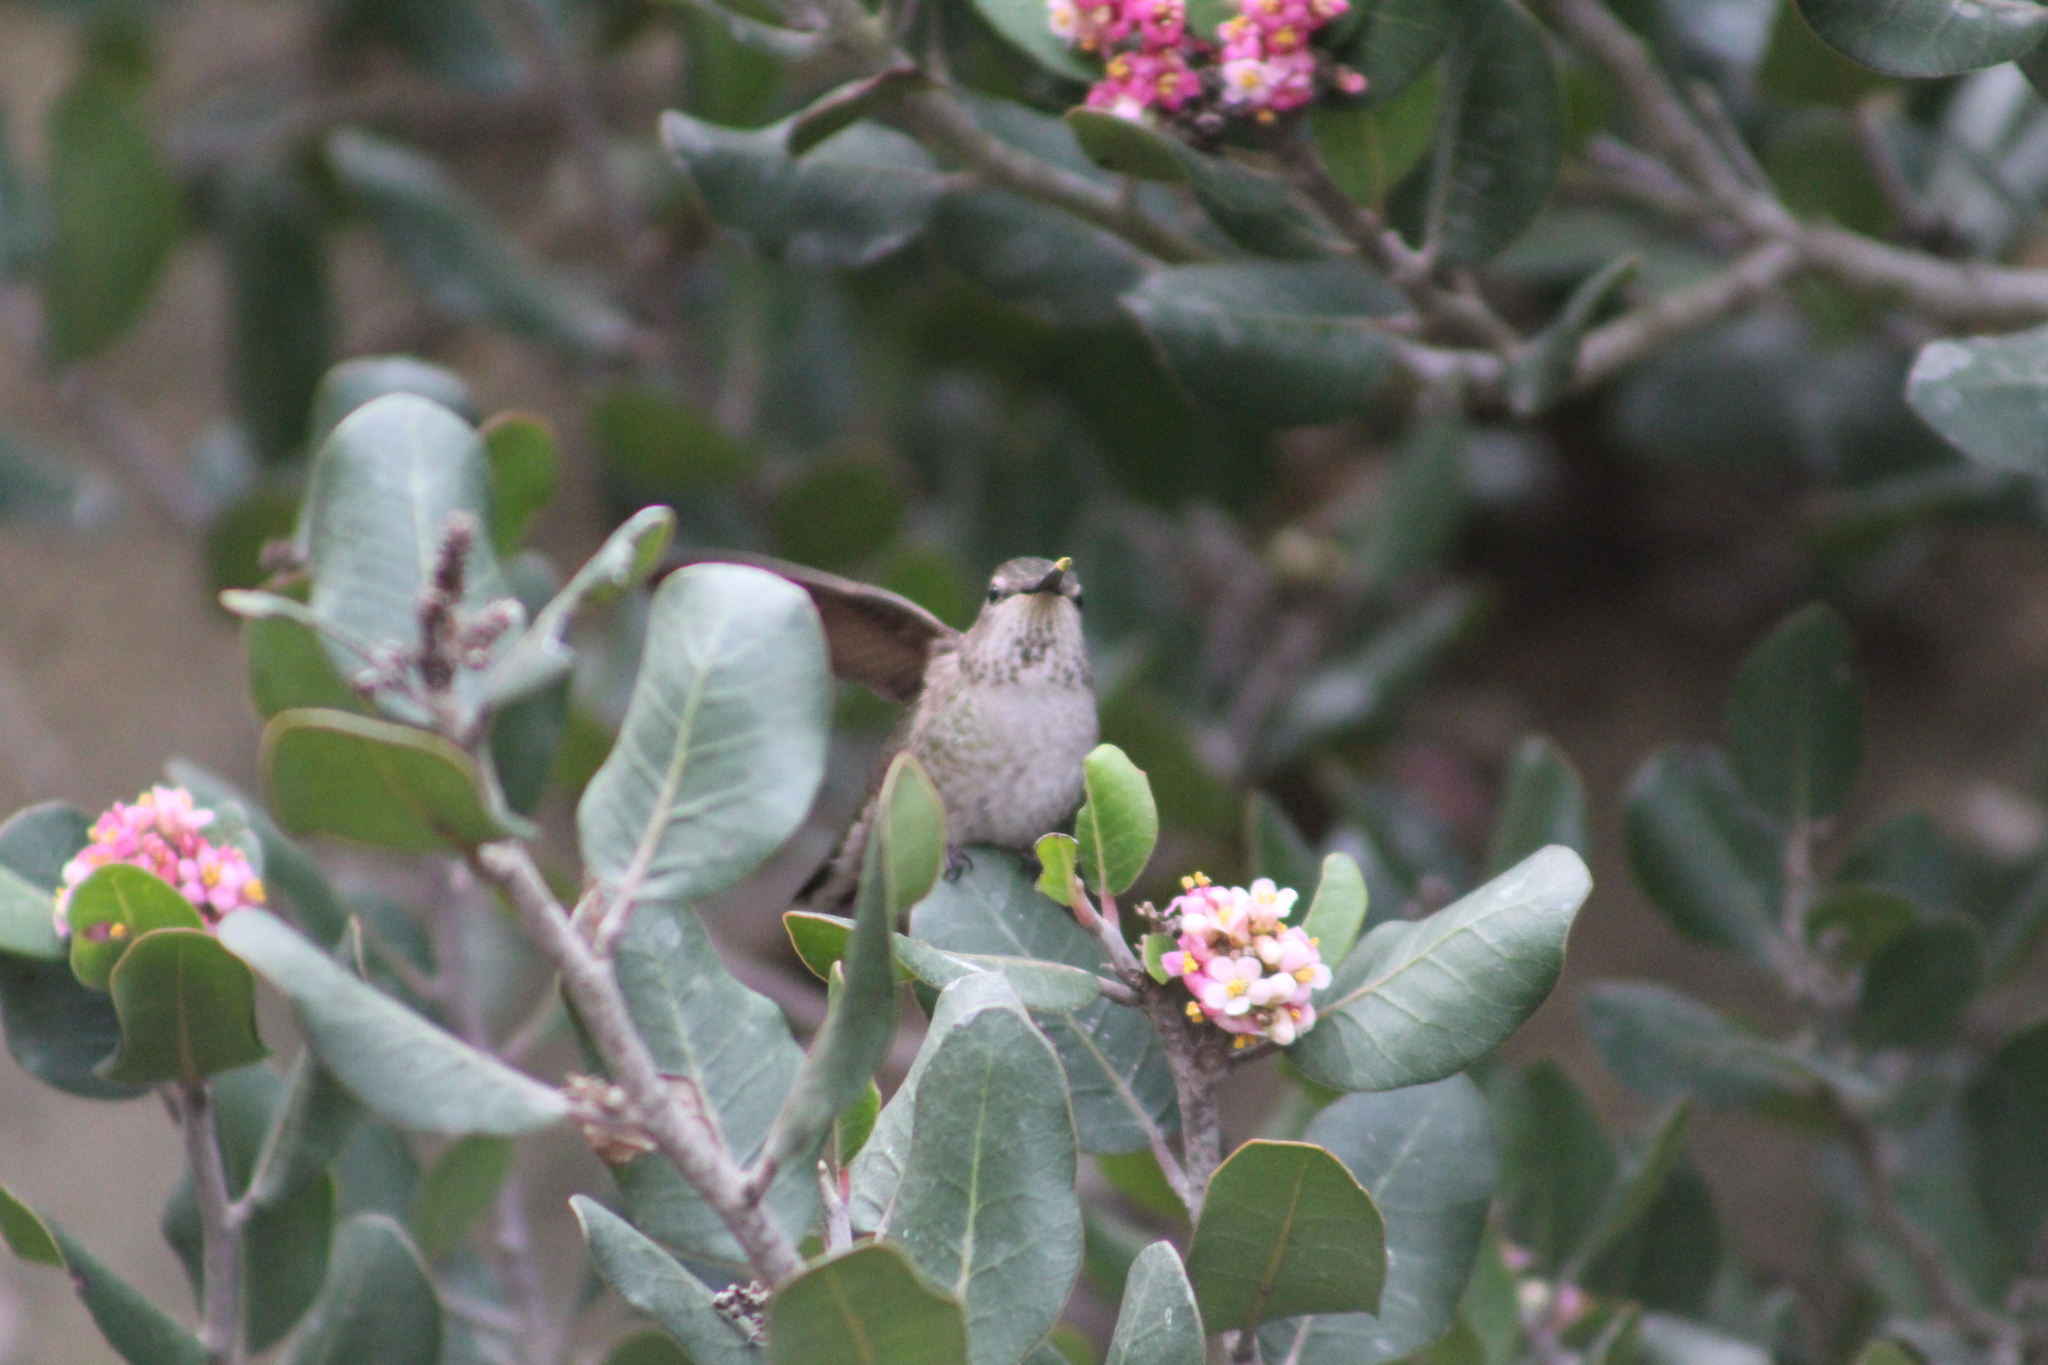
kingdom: Animalia
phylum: Chordata
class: Aves
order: Apodiformes
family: Trochilidae
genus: Calypte
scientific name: Calypte anna
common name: Anna's hummingbird
